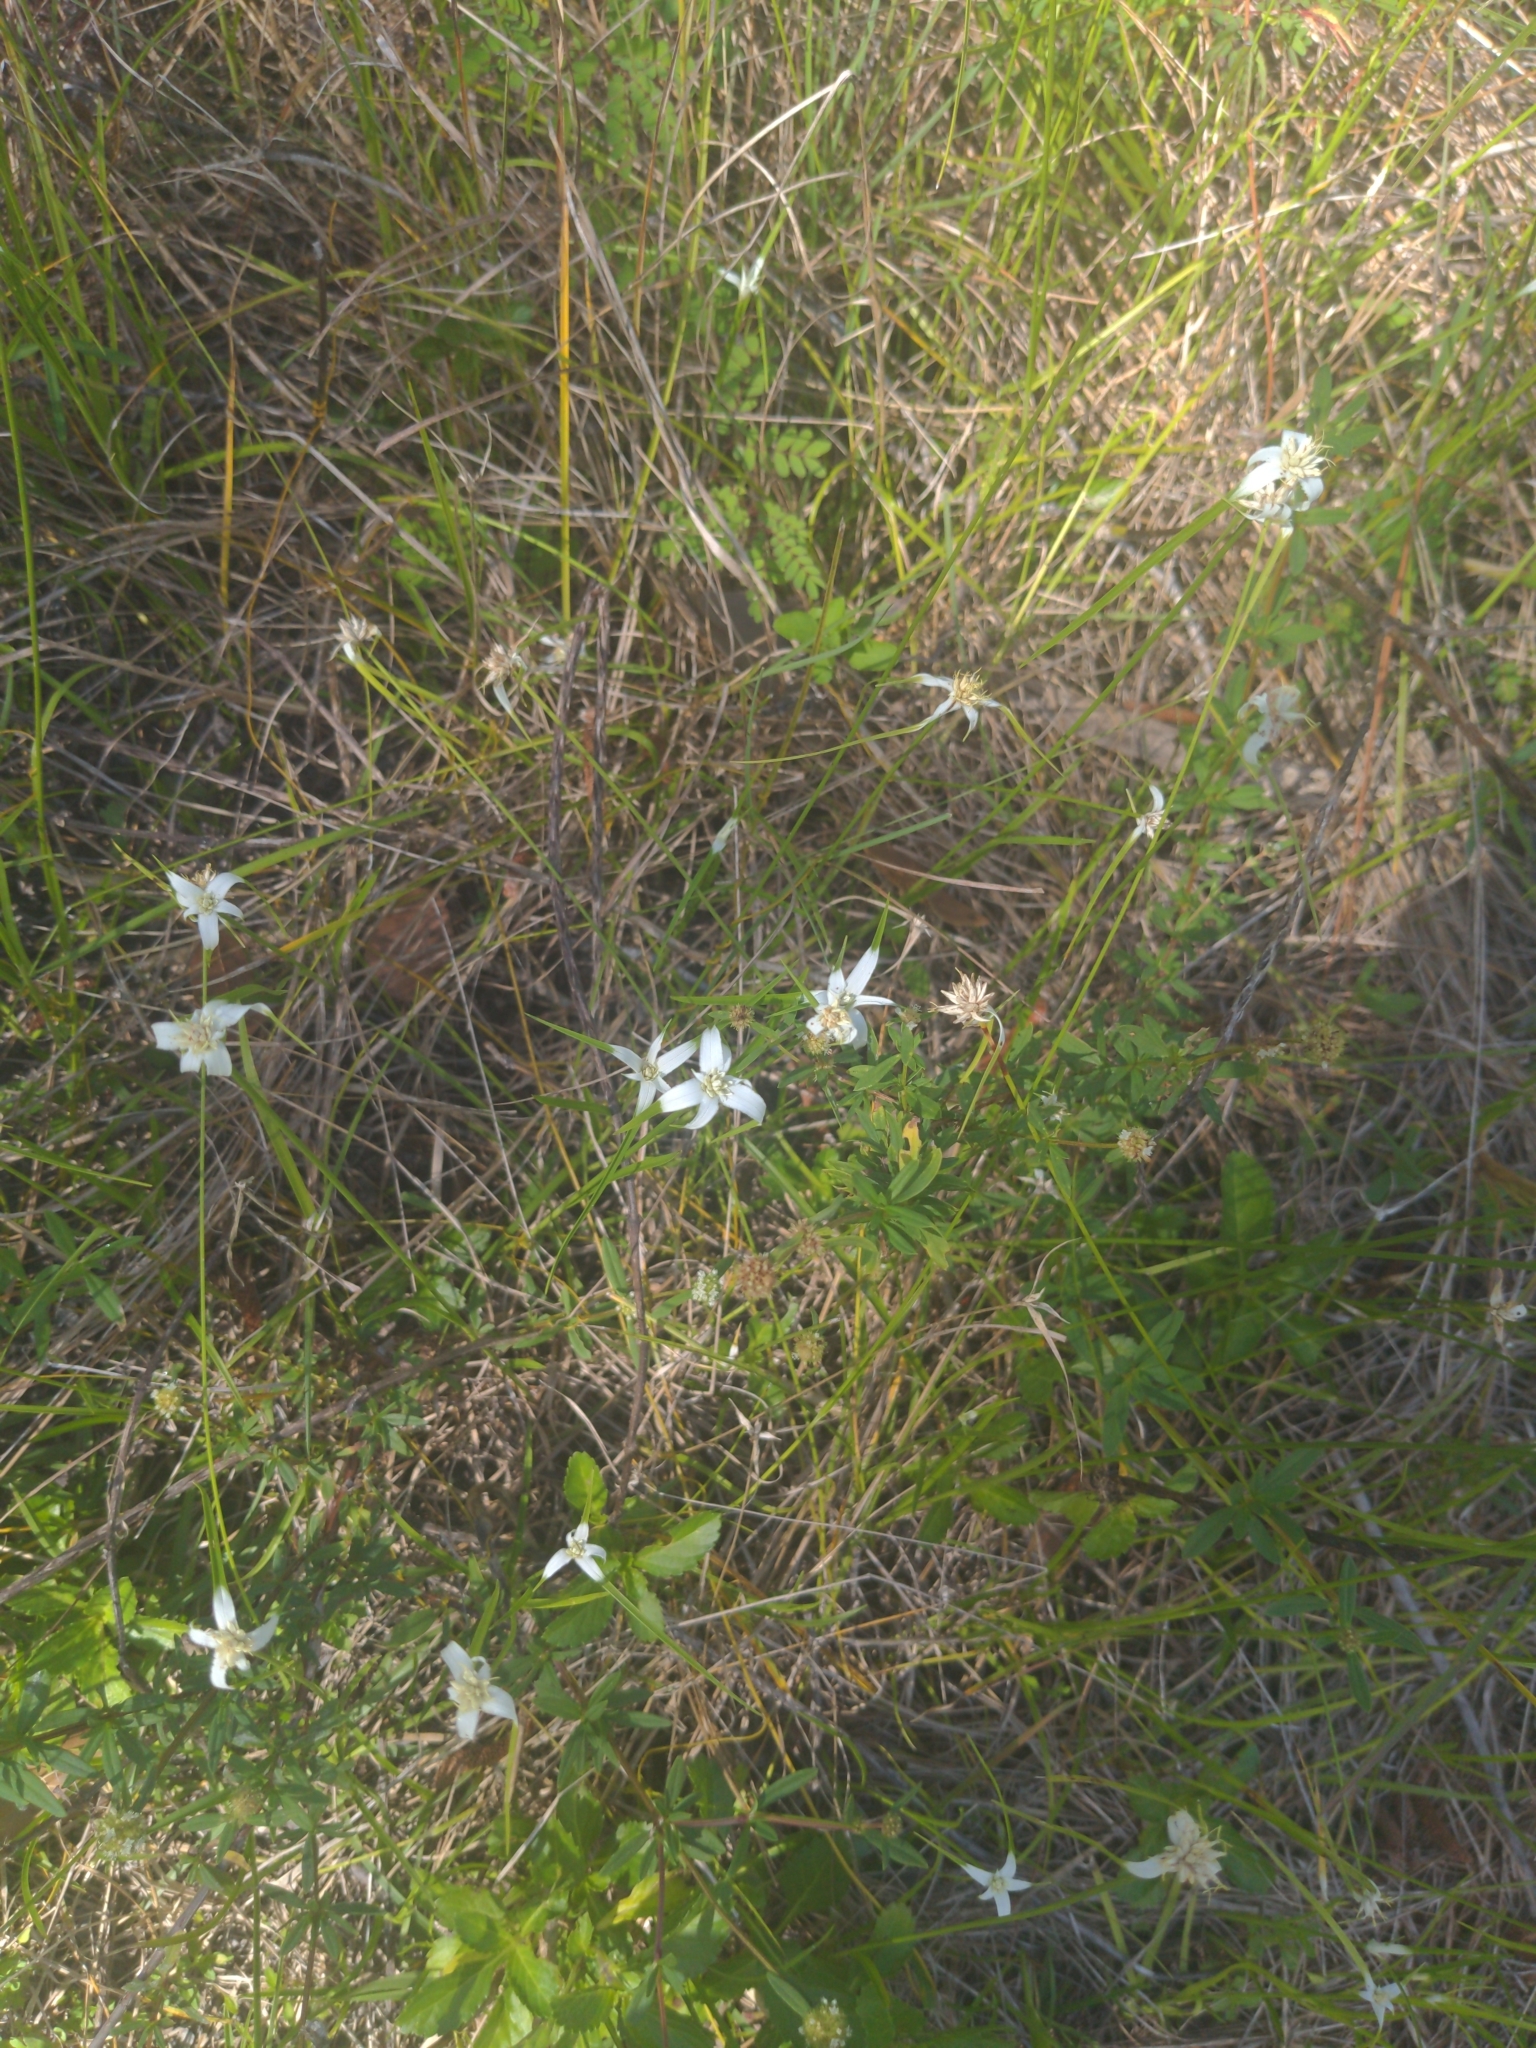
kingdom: Plantae
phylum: Tracheophyta
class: Liliopsida
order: Poales
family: Cyperaceae
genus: Rhynchospora
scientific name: Rhynchospora colorata
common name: Star sedge
